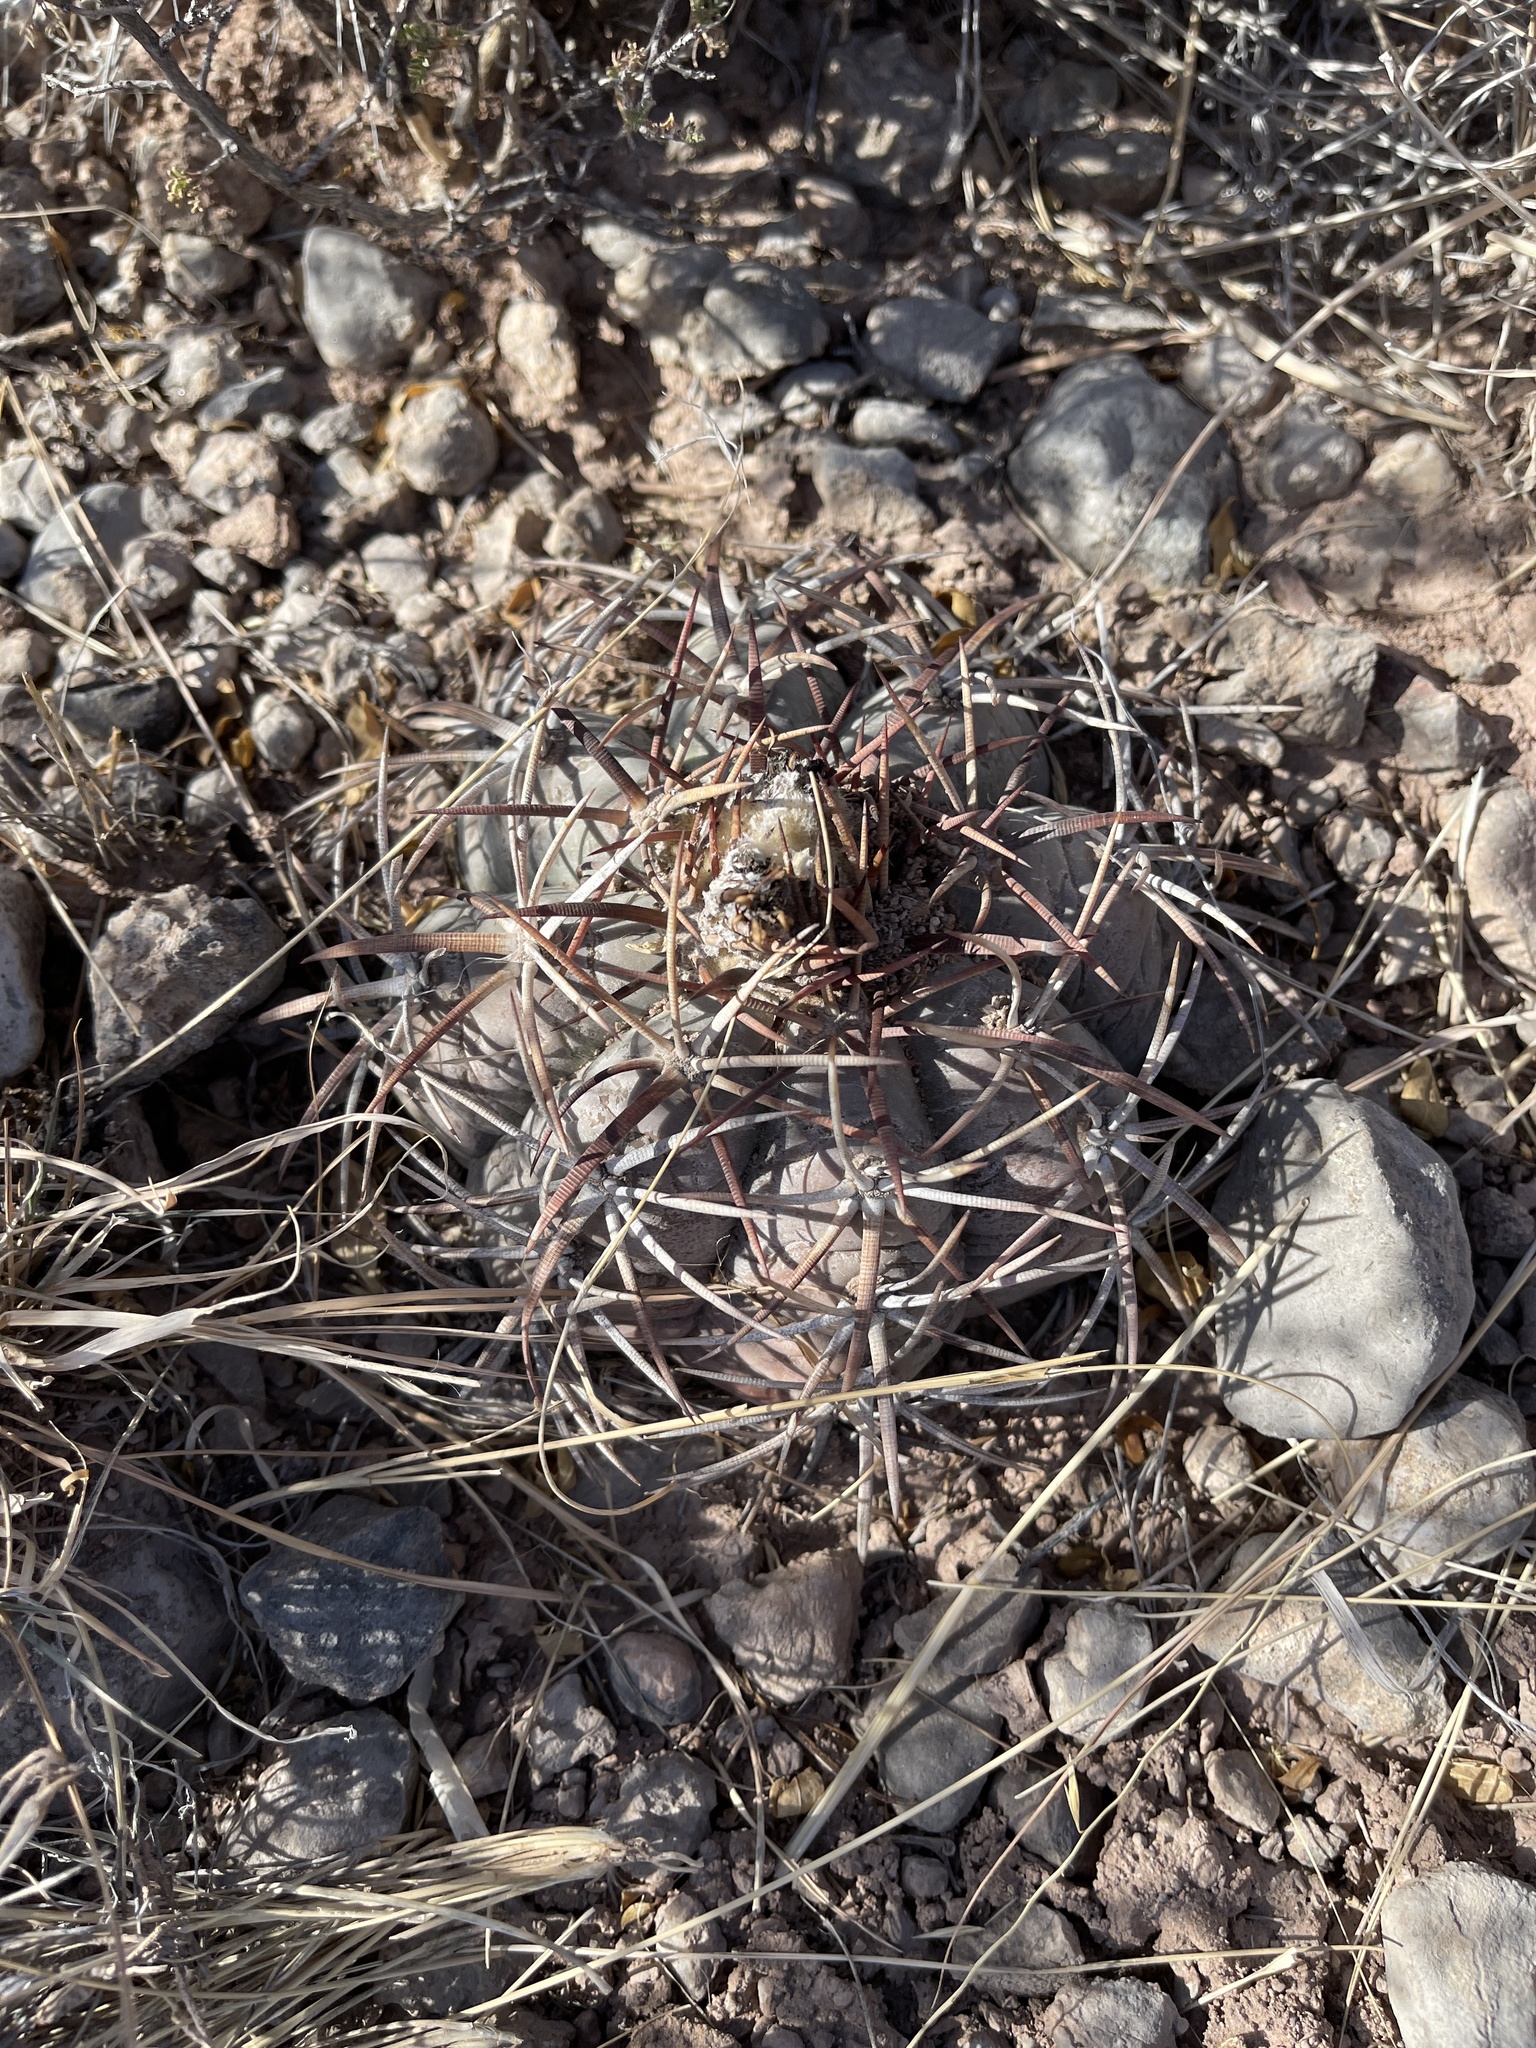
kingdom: Plantae
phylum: Tracheophyta
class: Magnoliopsida
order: Caryophyllales
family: Cactaceae
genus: Echinocactus
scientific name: Echinocactus horizonthalonius
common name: Devilshead
